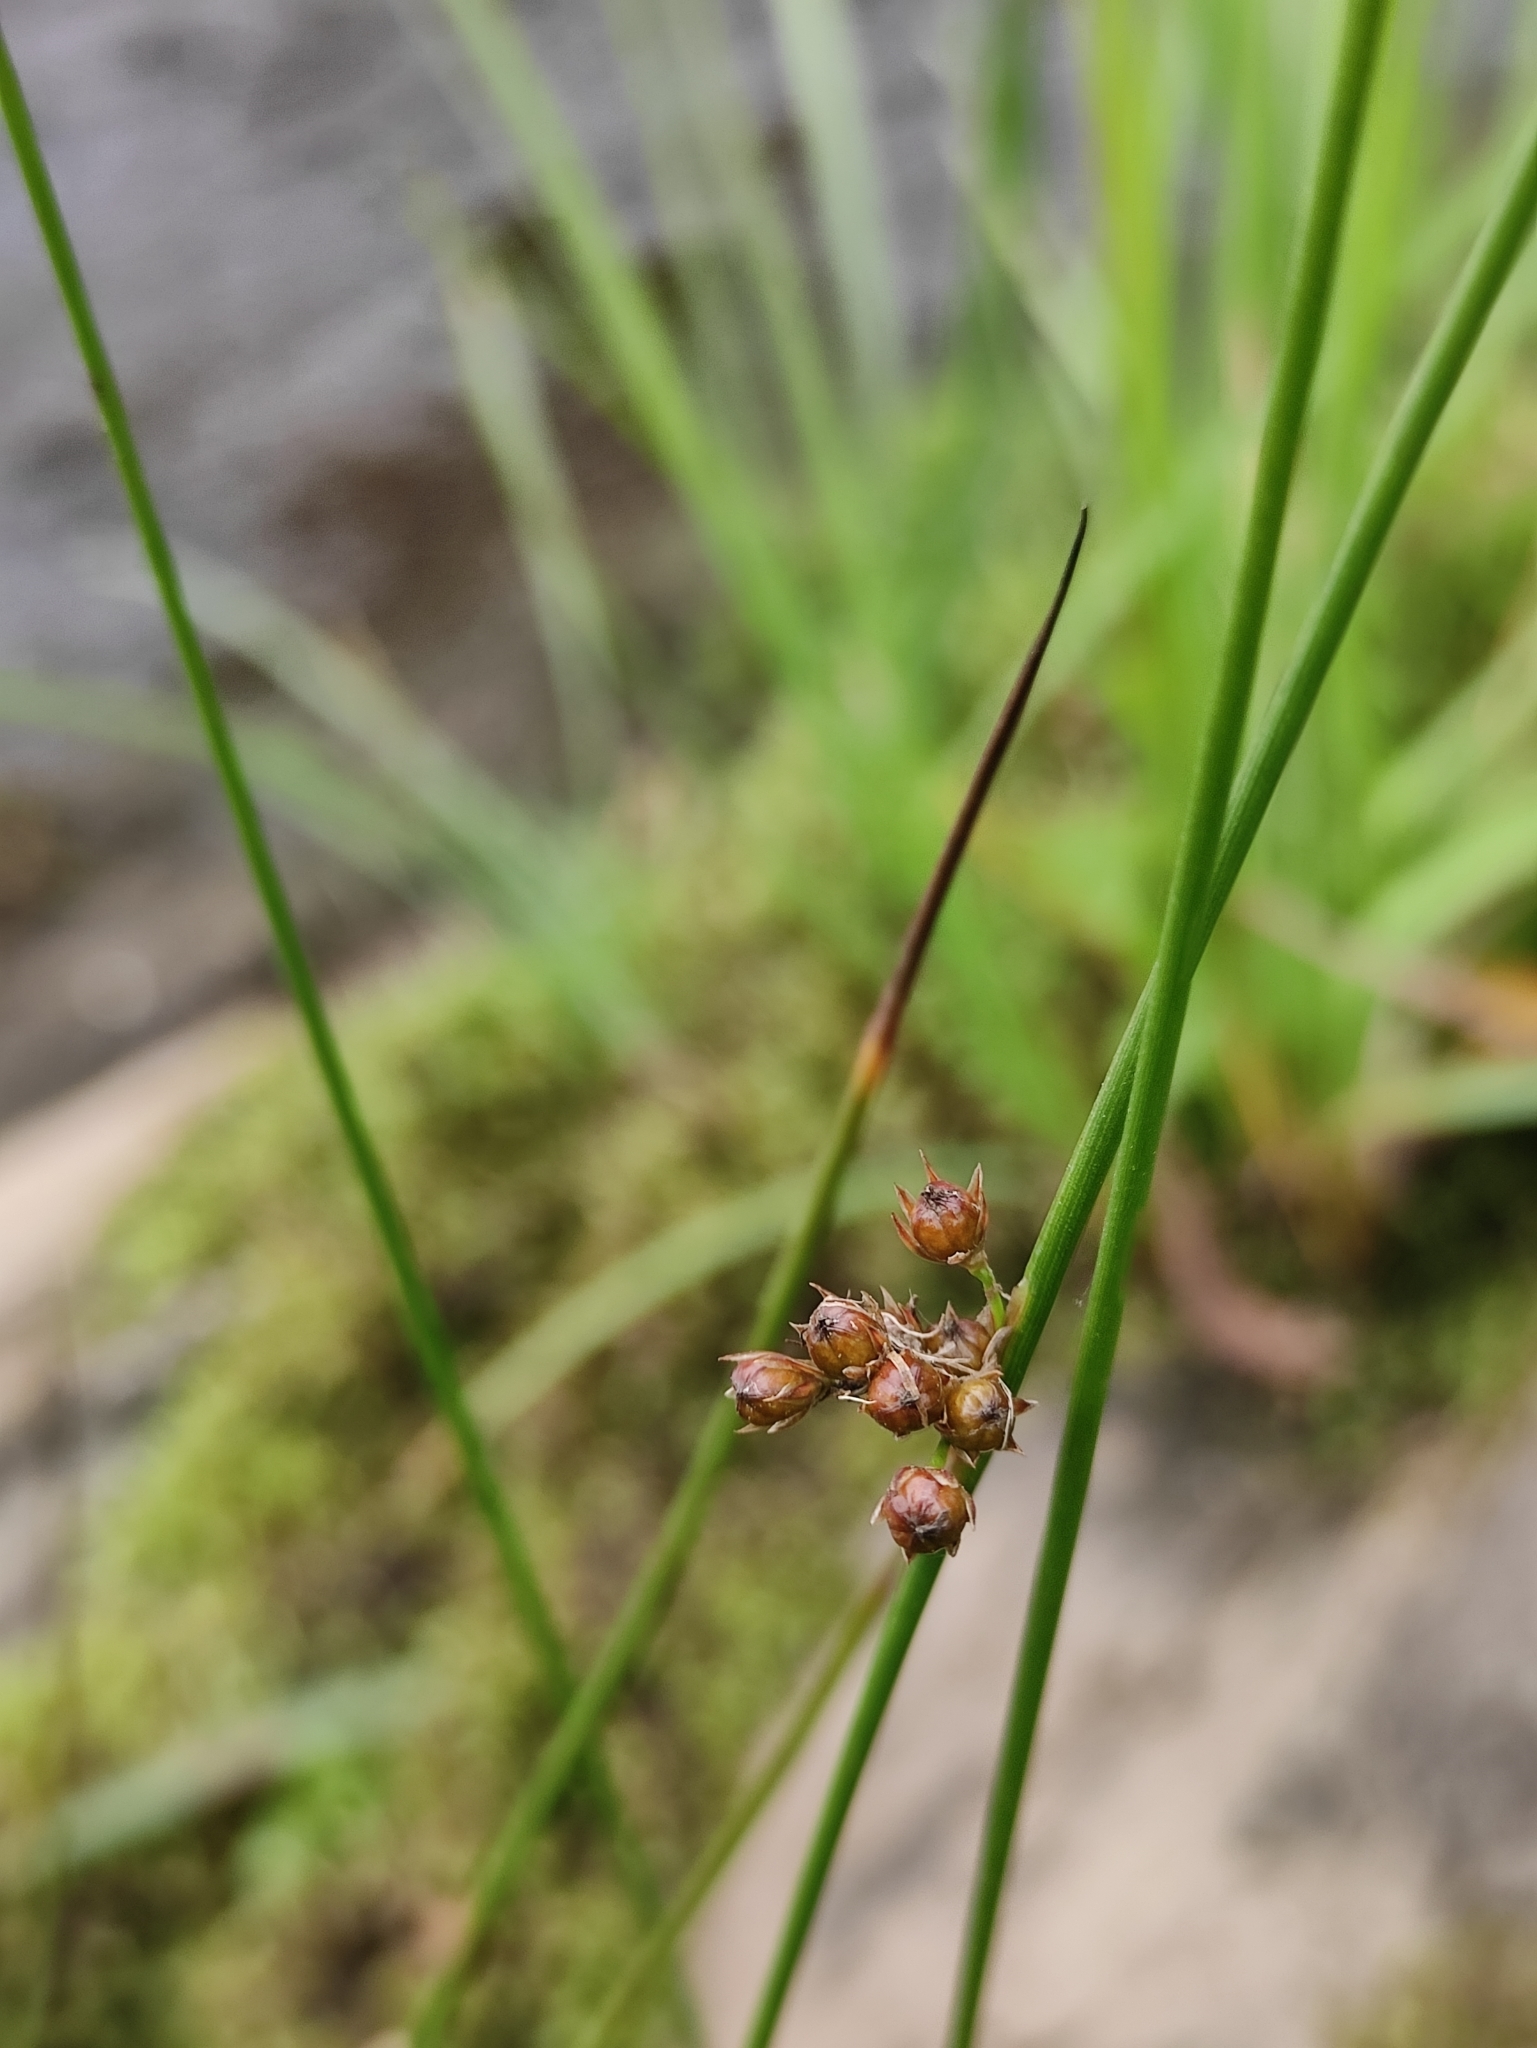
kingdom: Plantae
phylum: Tracheophyta
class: Liliopsida
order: Poales
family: Juncaceae
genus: Juncus
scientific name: Juncus filiformis
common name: Thread rush
